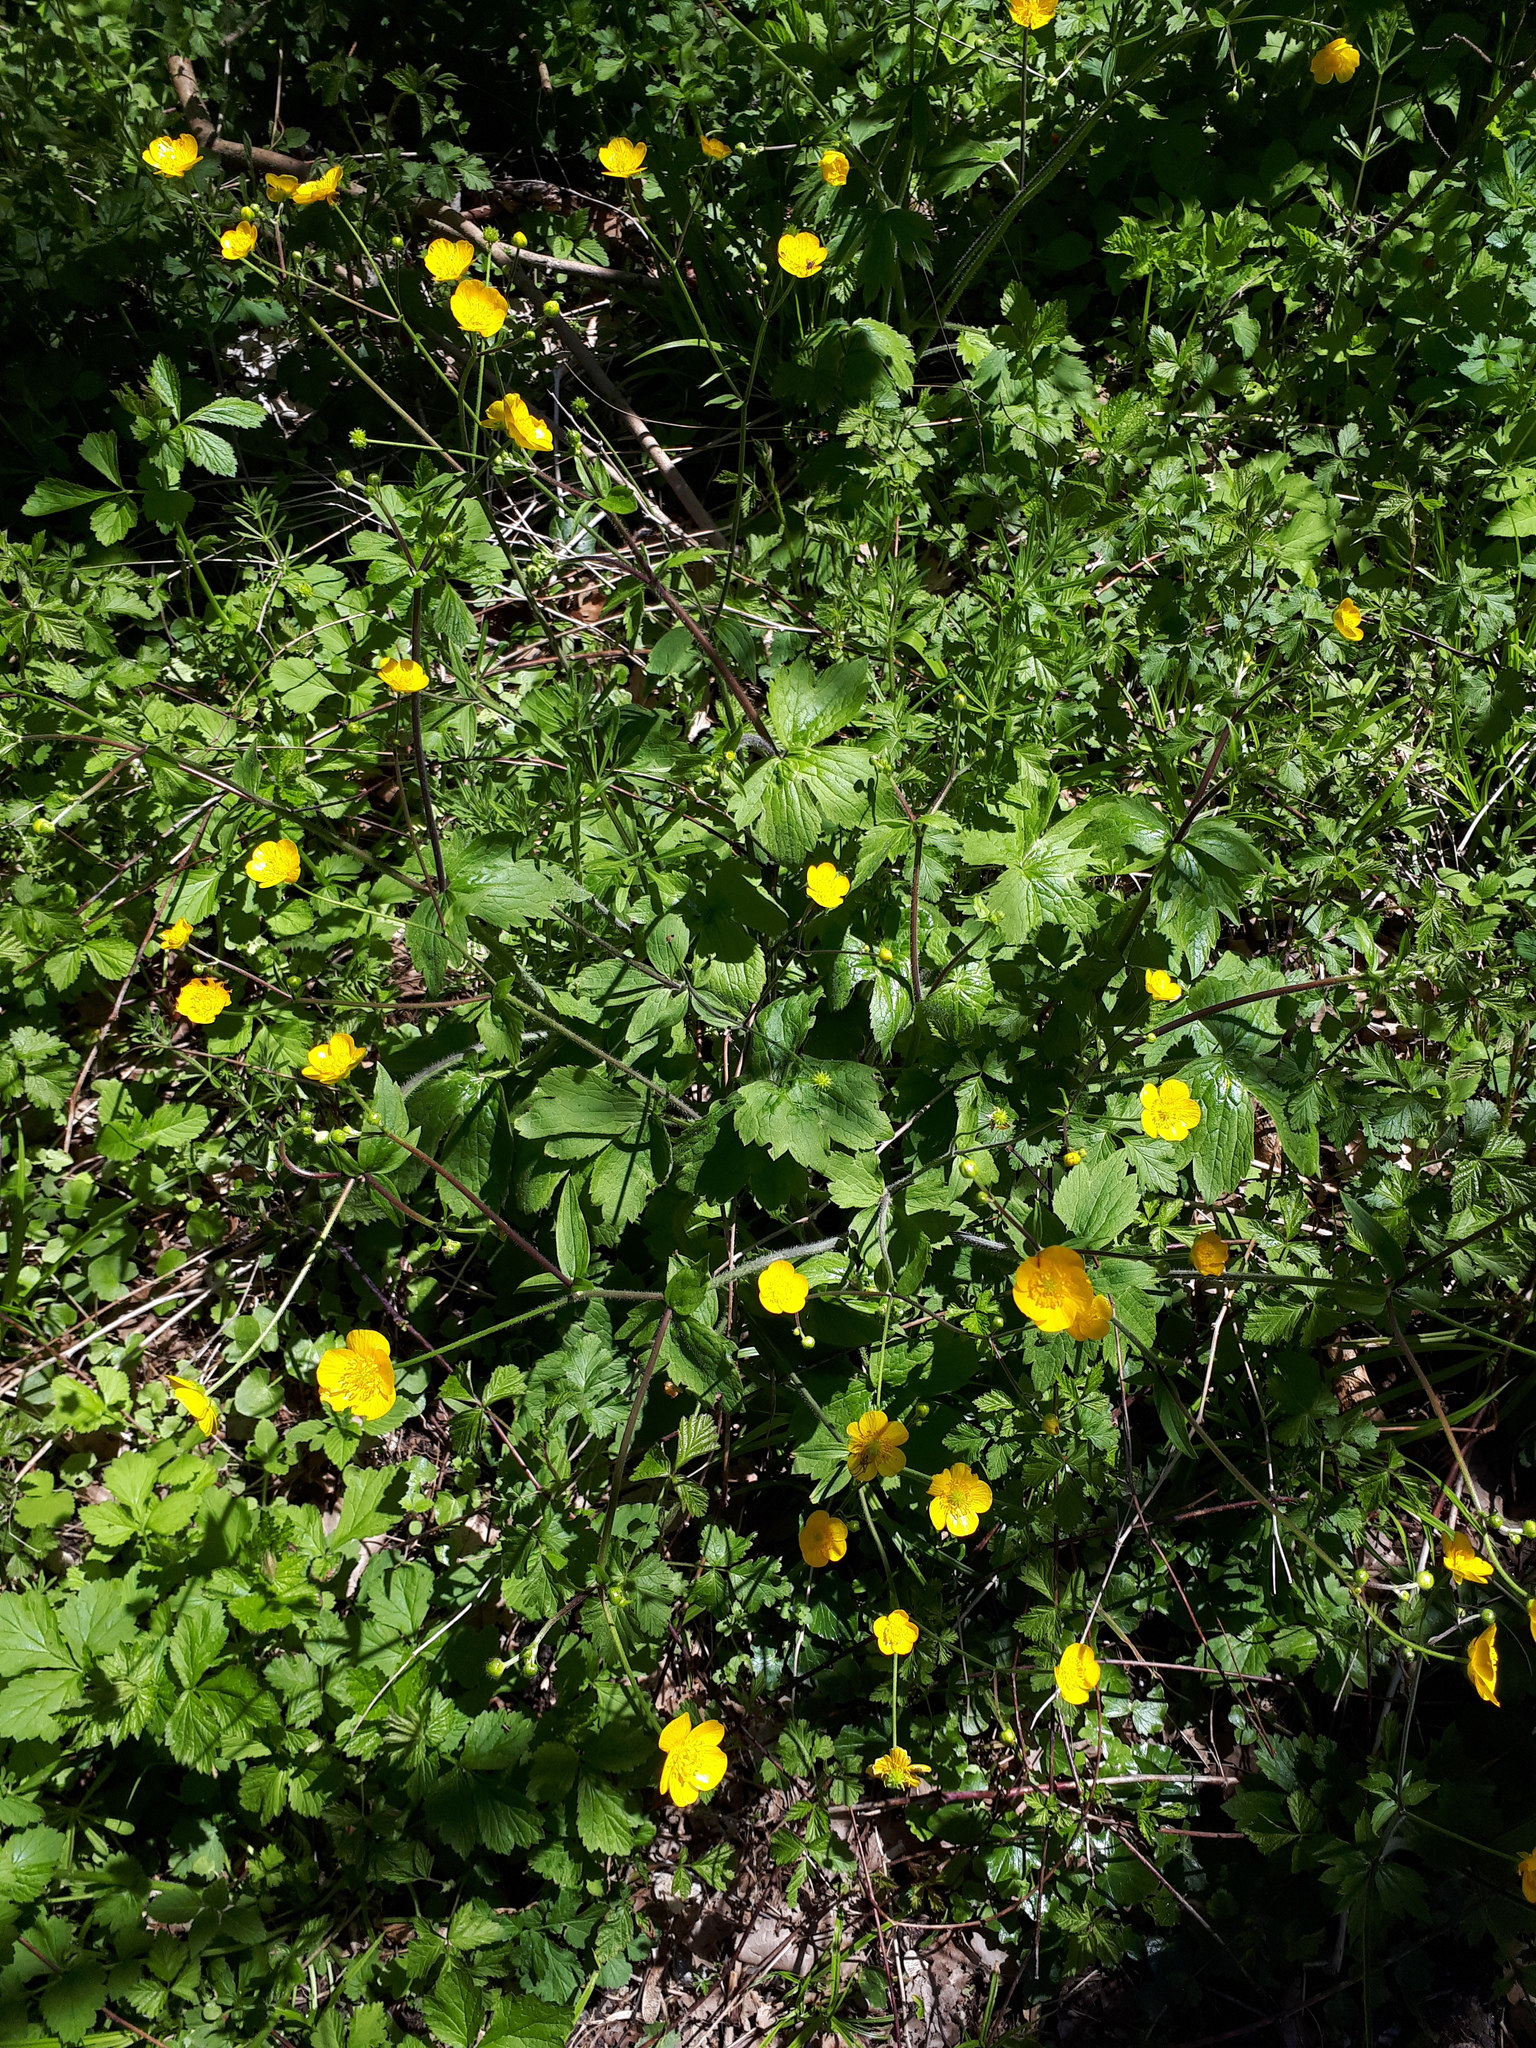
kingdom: Plantae
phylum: Tracheophyta
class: Magnoliopsida
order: Ranunculales
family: Ranunculaceae
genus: Ranunculus
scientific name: Ranunculus lanuginosus
